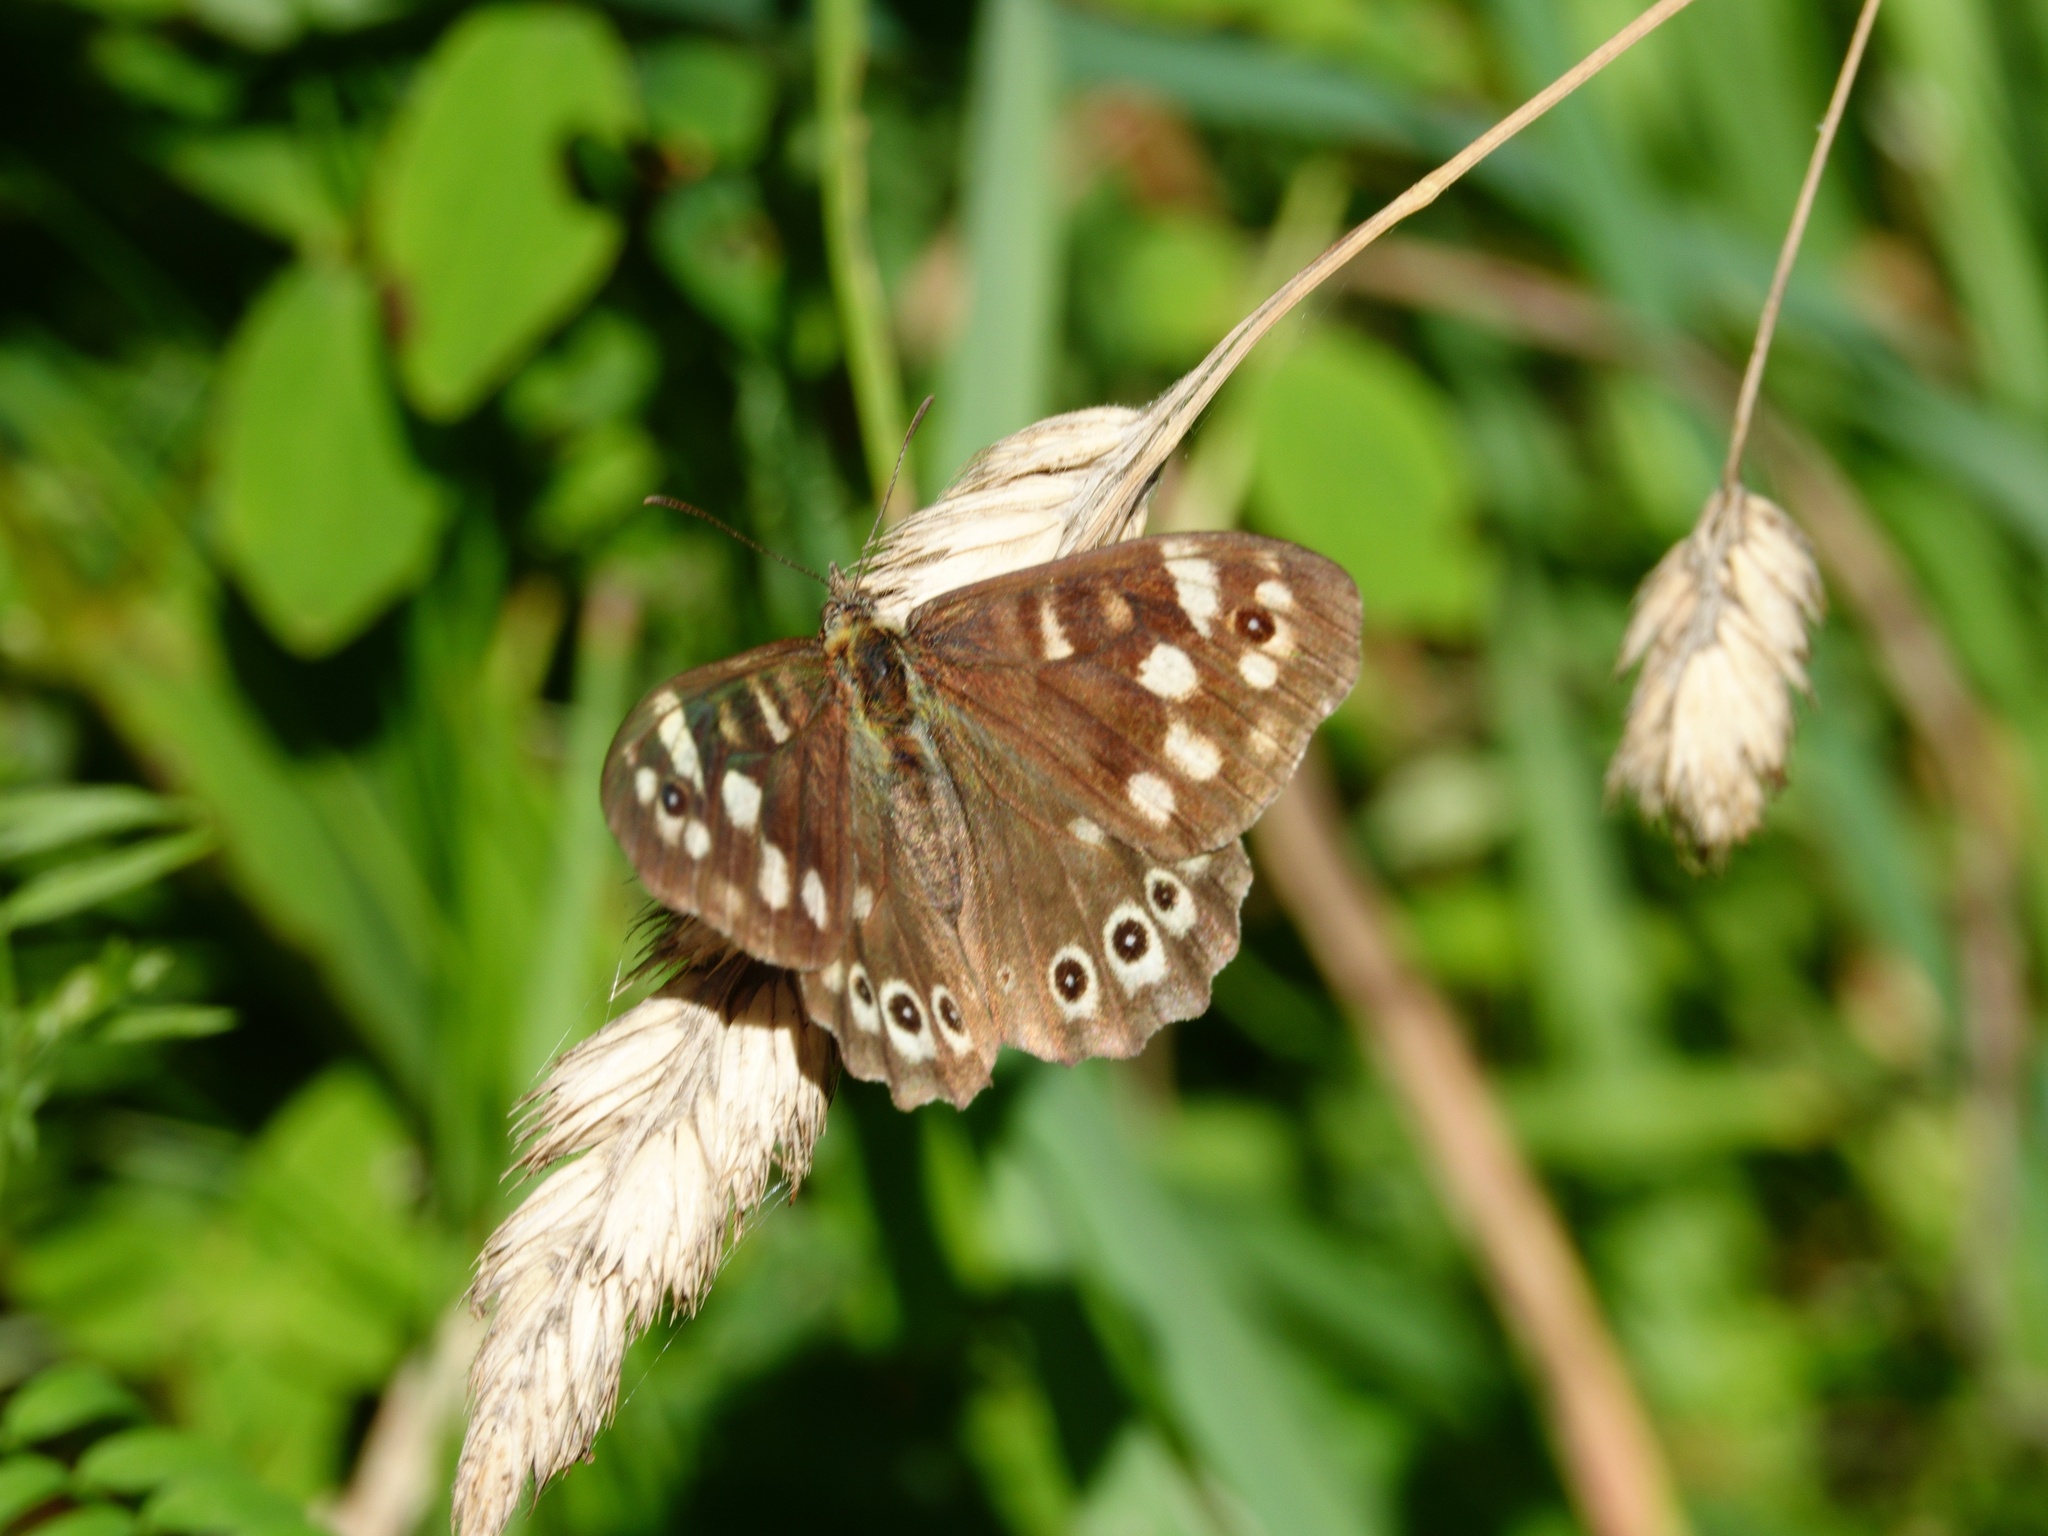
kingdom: Animalia
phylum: Arthropoda
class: Insecta
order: Lepidoptera
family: Nymphalidae
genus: Pararge
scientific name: Pararge aegeria
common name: Speckled wood
